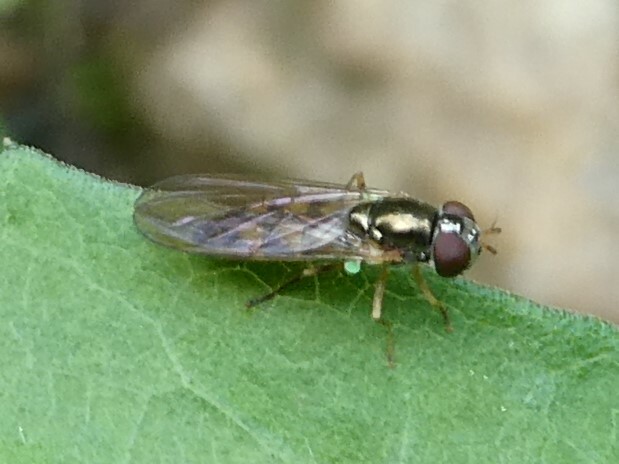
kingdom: Animalia
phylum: Arthropoda
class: Insecta
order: Diptera
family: Syrphidae
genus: Melanostoma
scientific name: Melanostoma mellina
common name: Hover fly
